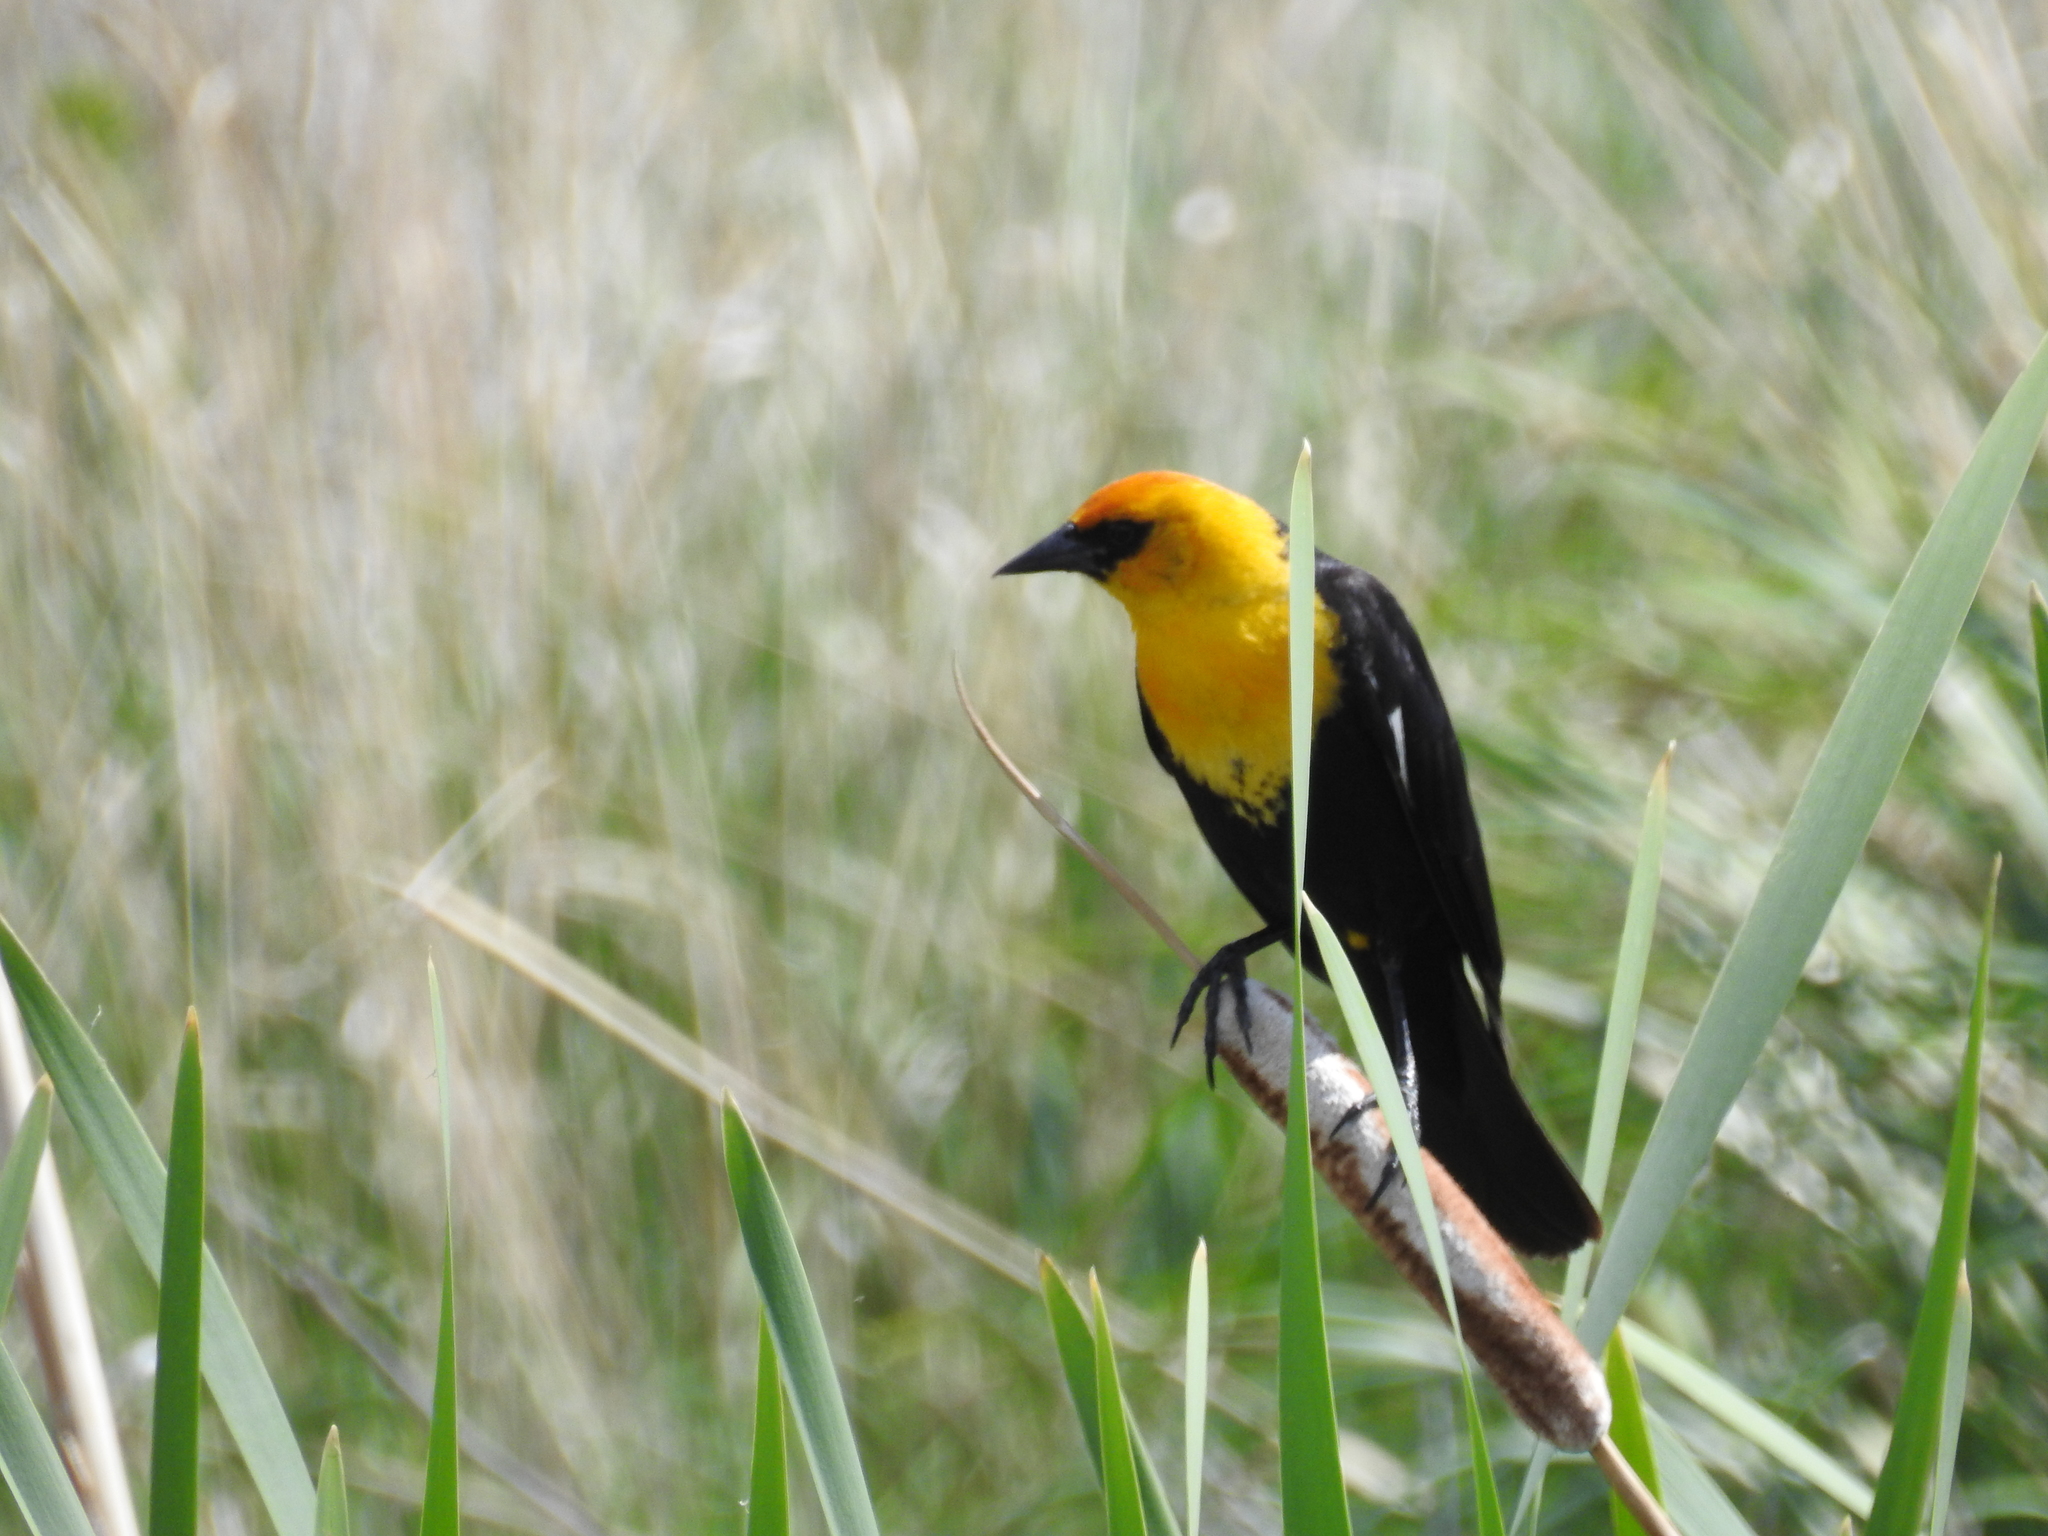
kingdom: Animalia
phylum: Chordata
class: Aves
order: Passeriformes
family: Icteridae
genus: Xanthocephalus
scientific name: Xanthocephalus xanthocephalus
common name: Yellow-headed blackbird
